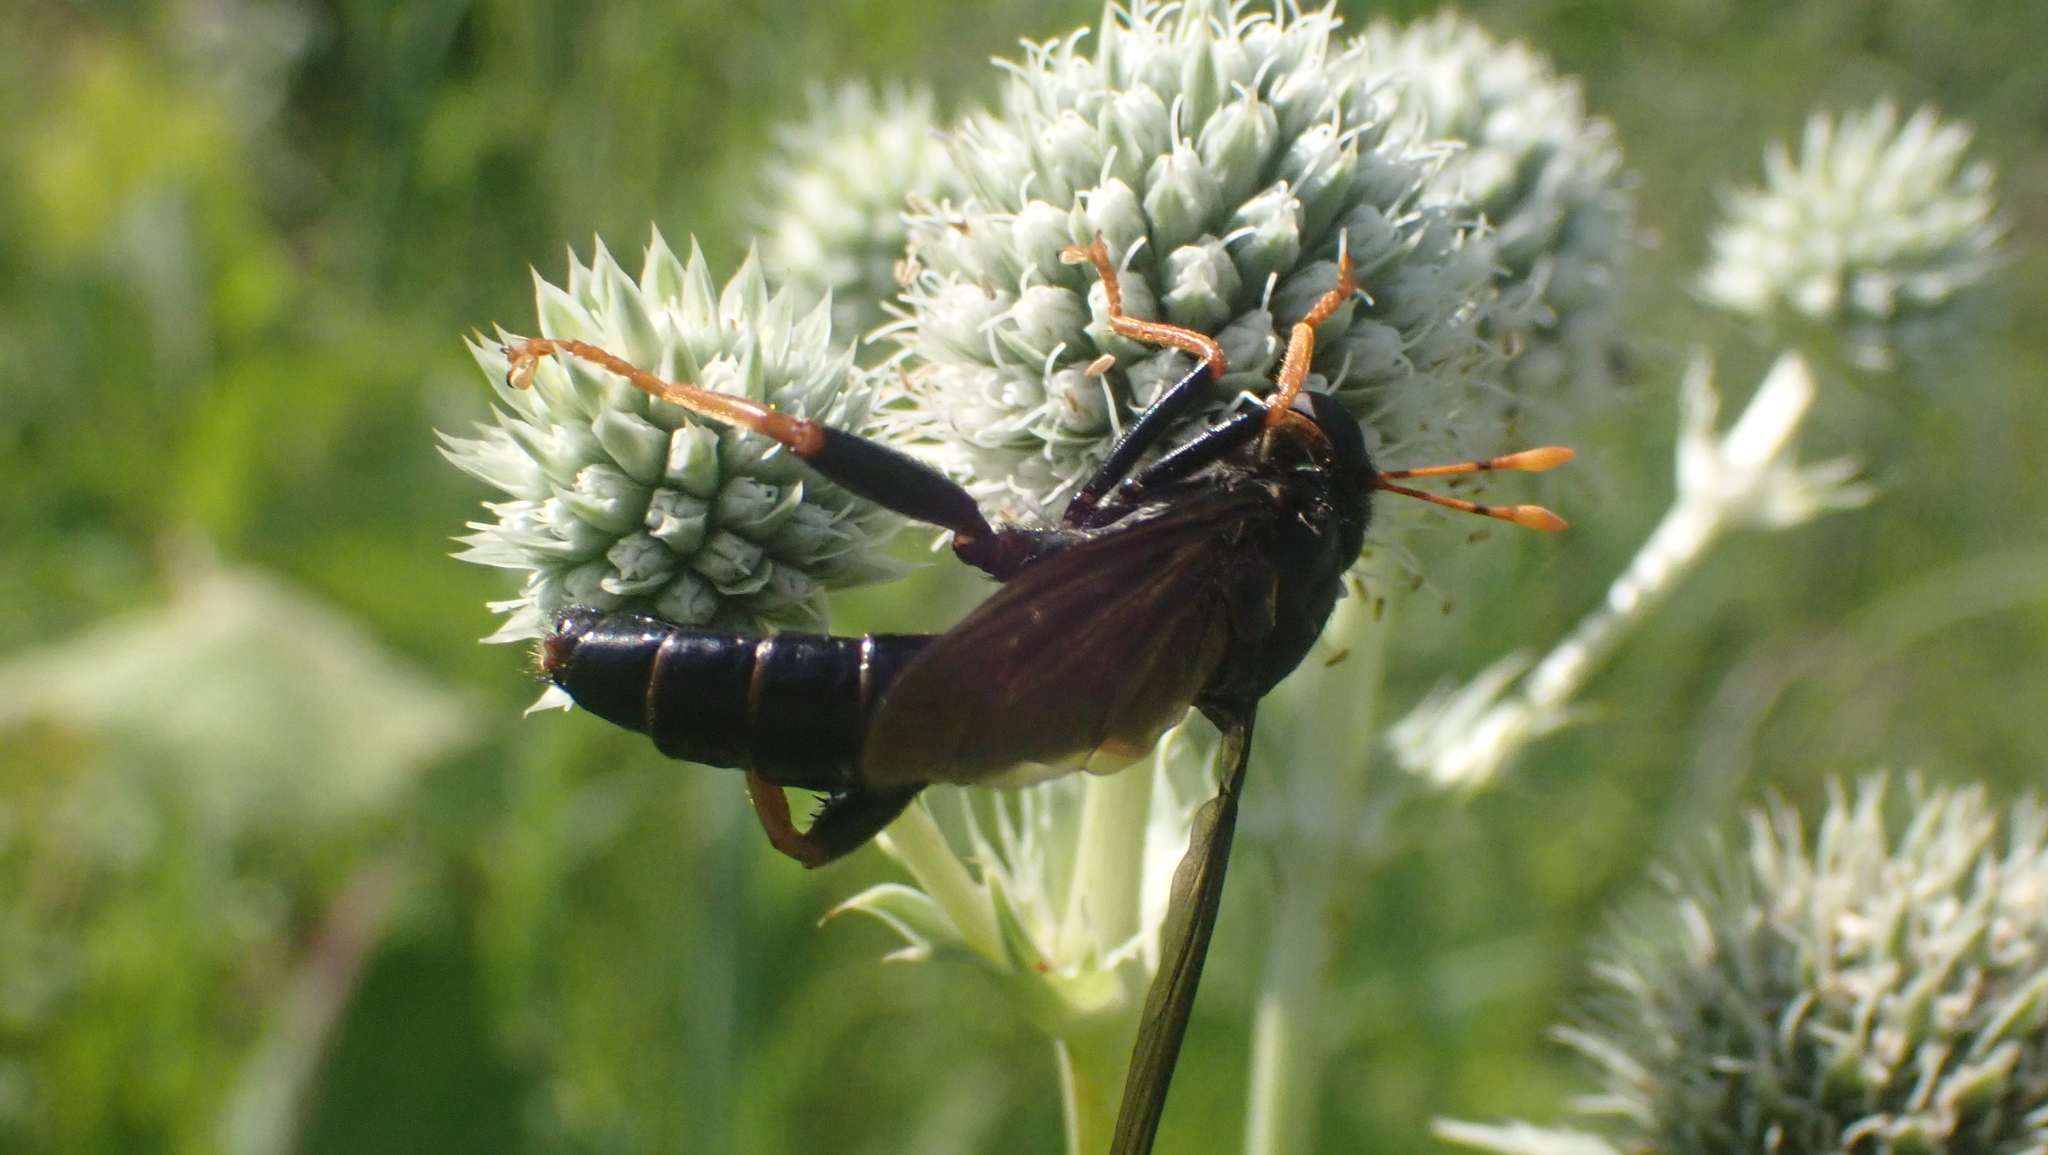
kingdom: Animalia
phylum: Arthropoda
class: Insecta
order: Diptera
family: Mydidae
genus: Mydas
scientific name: Mydas tibialis
